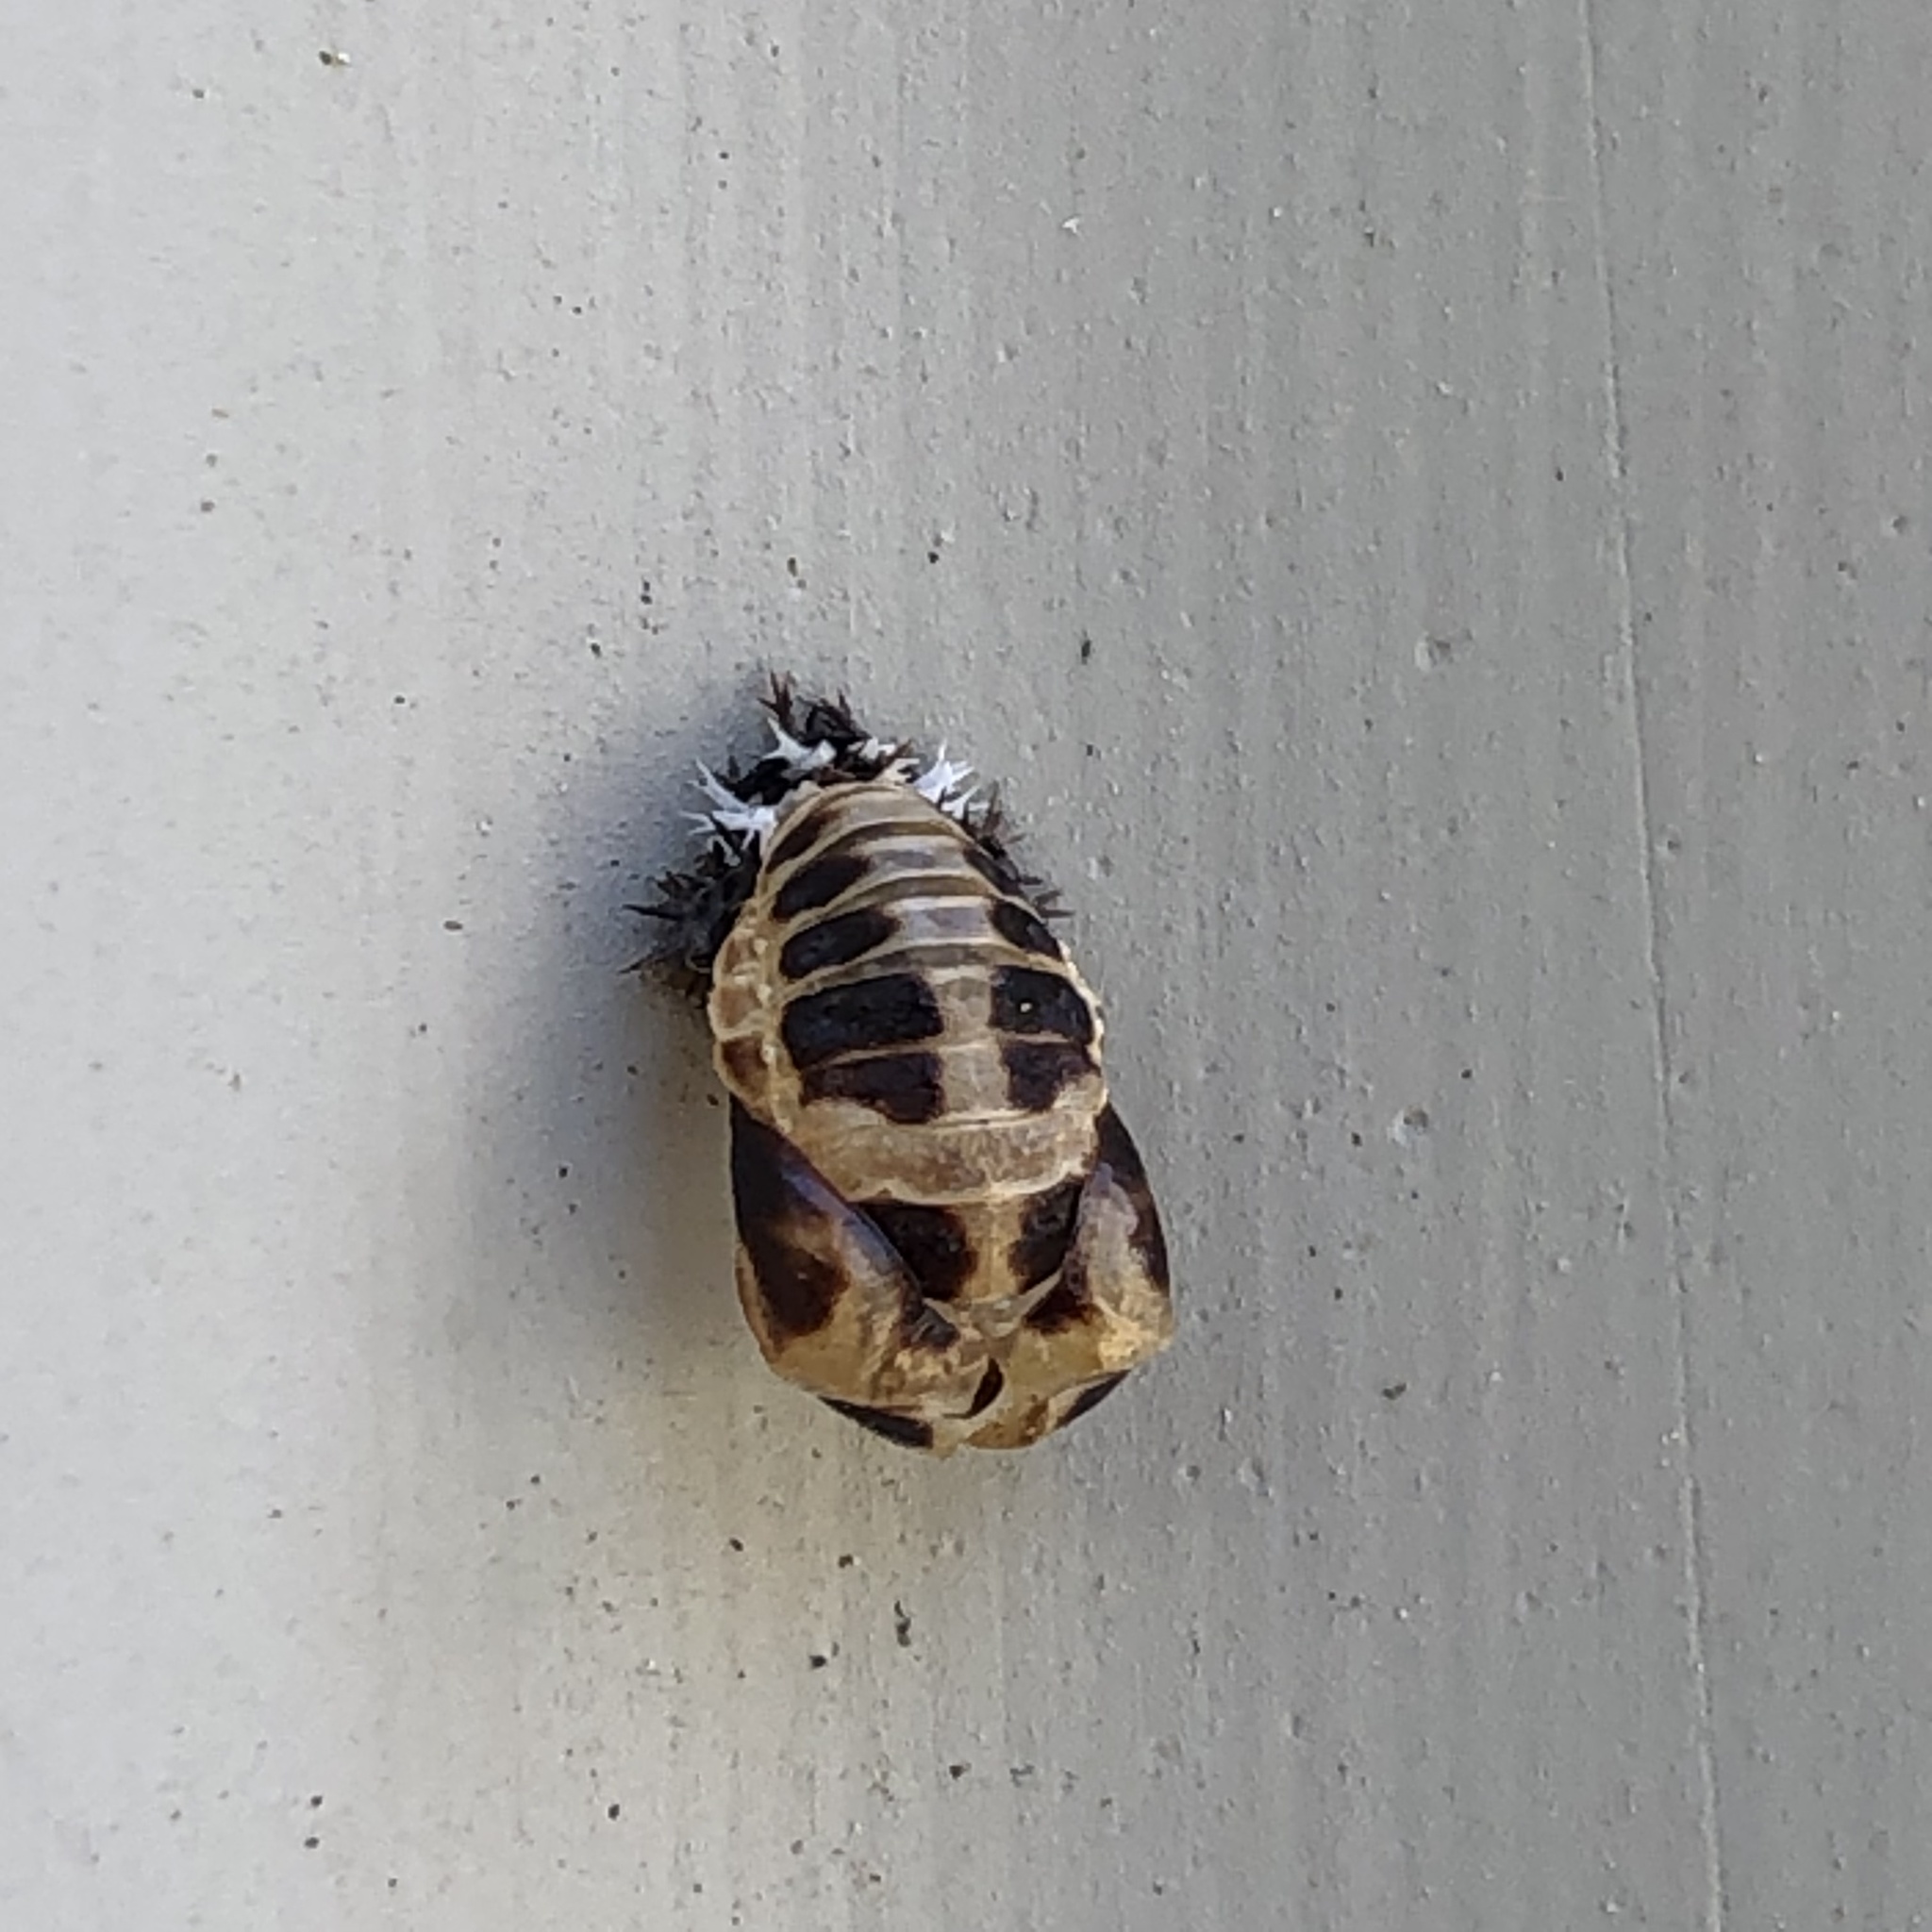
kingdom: Animalia
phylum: Arthropoda
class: Insecta
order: Coleoptera
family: Coccinellidae
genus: Harmonia
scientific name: Harmonia axyridis
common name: Harlequin ladybird
